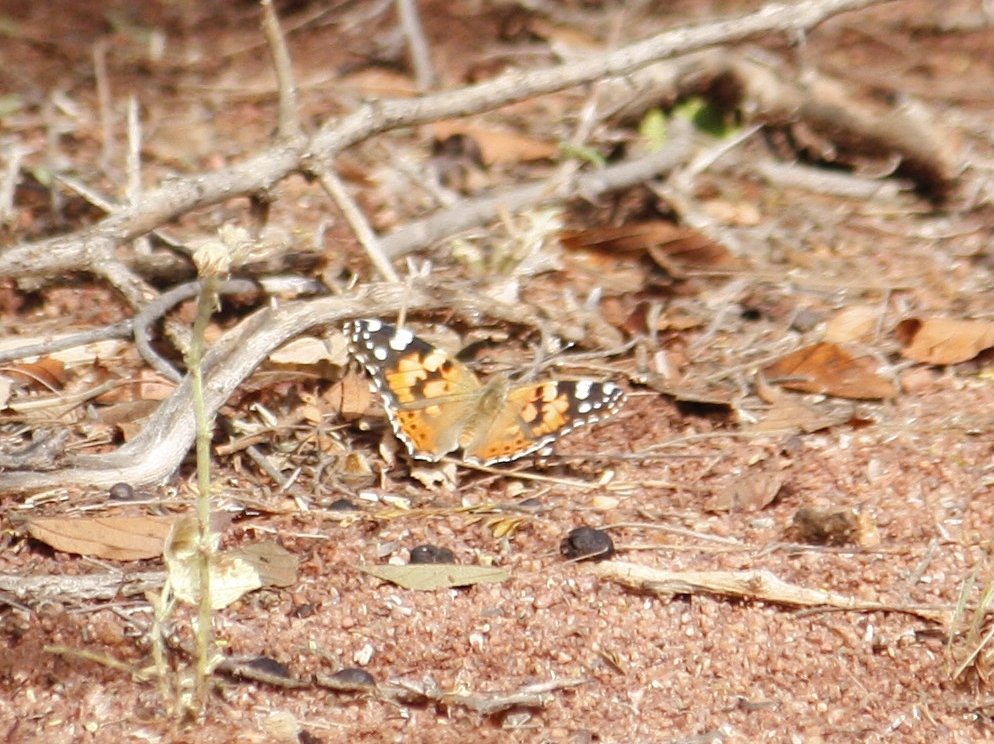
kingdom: Animalia
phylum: Arthropoda
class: Insecta
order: Lepidoptera
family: Nymphalidae
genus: Vanessa
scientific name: Vanessa cardui
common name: Painted lady
